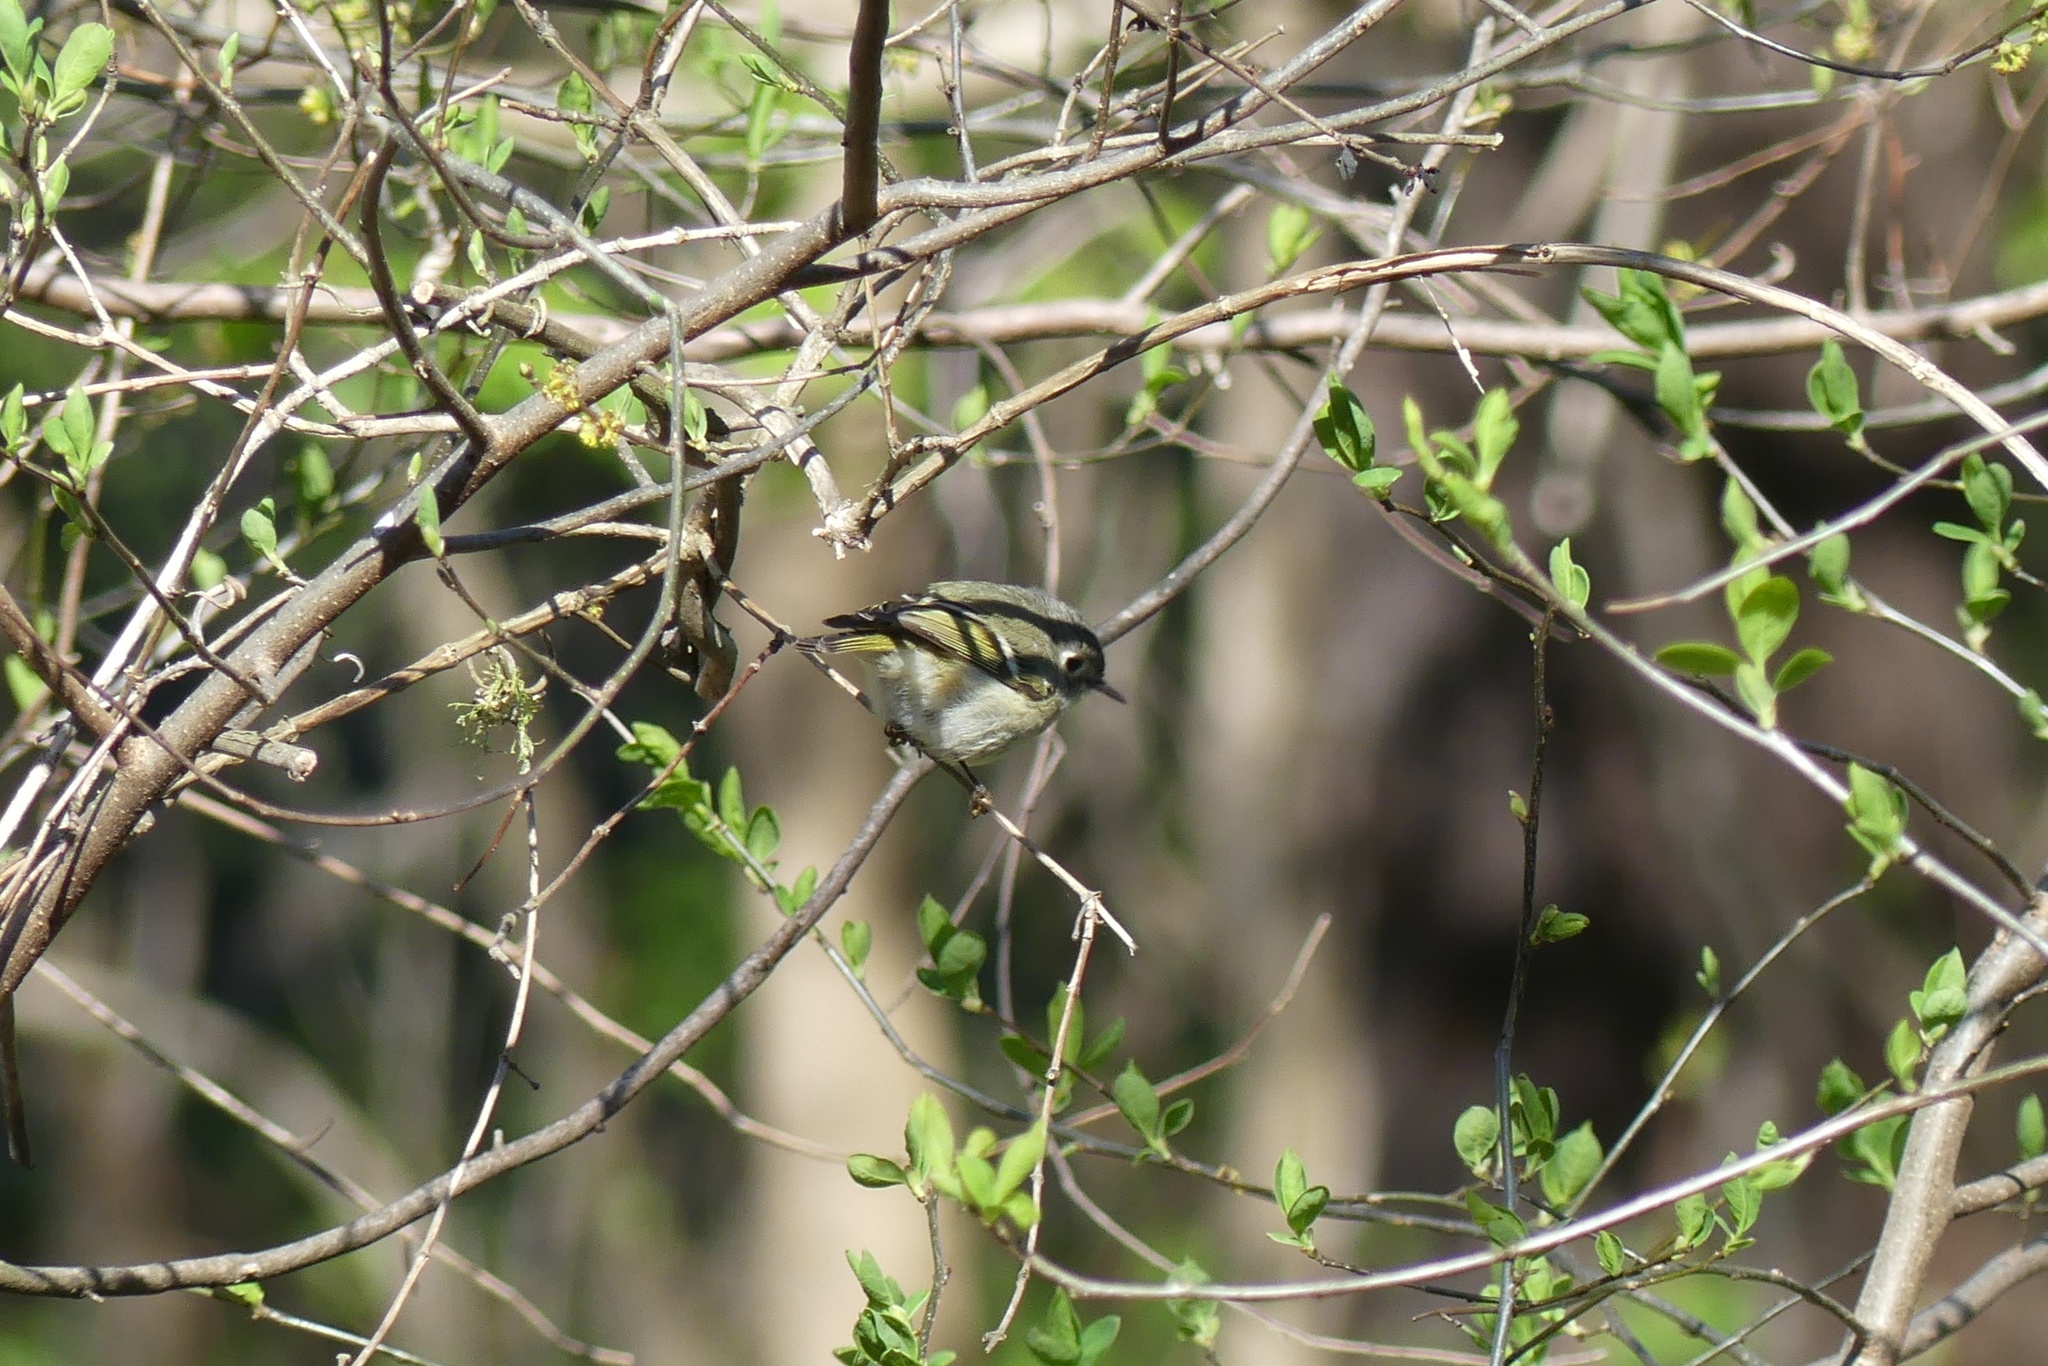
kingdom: Animalia
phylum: Chordata
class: Aves
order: Passeriformes
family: Regulidae
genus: Regulus
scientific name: Regulus calendula
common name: Ruby-crowned kinglet
